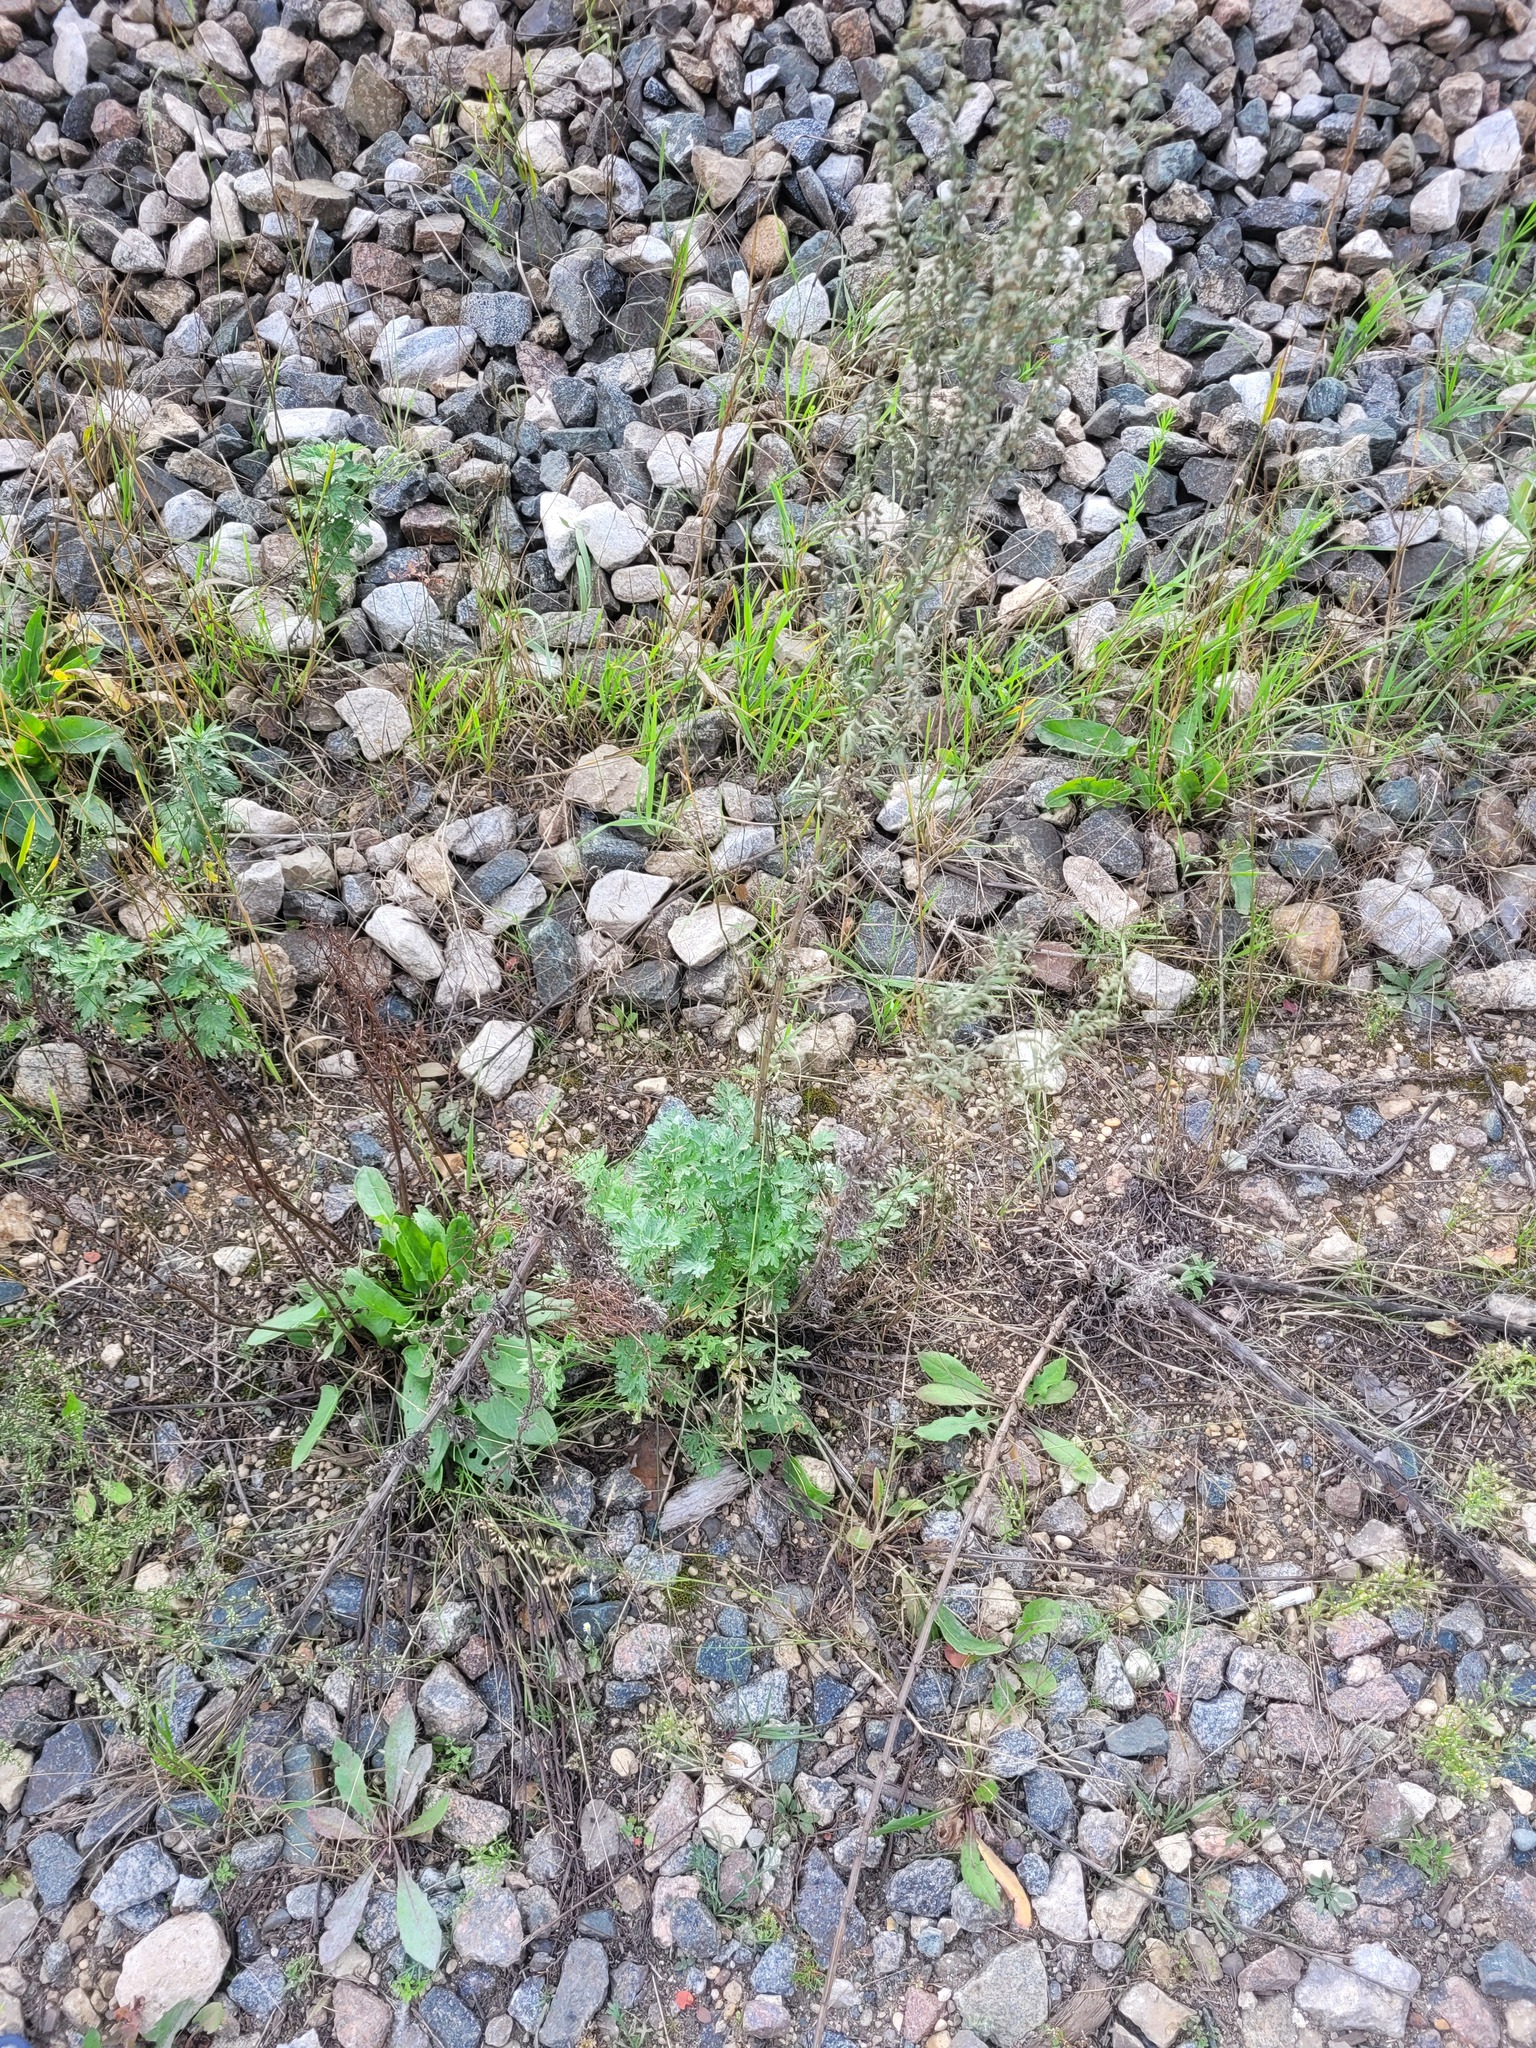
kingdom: Plantae
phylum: Tracheophyta
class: Magnoliopsida
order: Asterales
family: Asteraceae
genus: Artemisia
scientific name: Artemisia absinthium
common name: Wormwood
